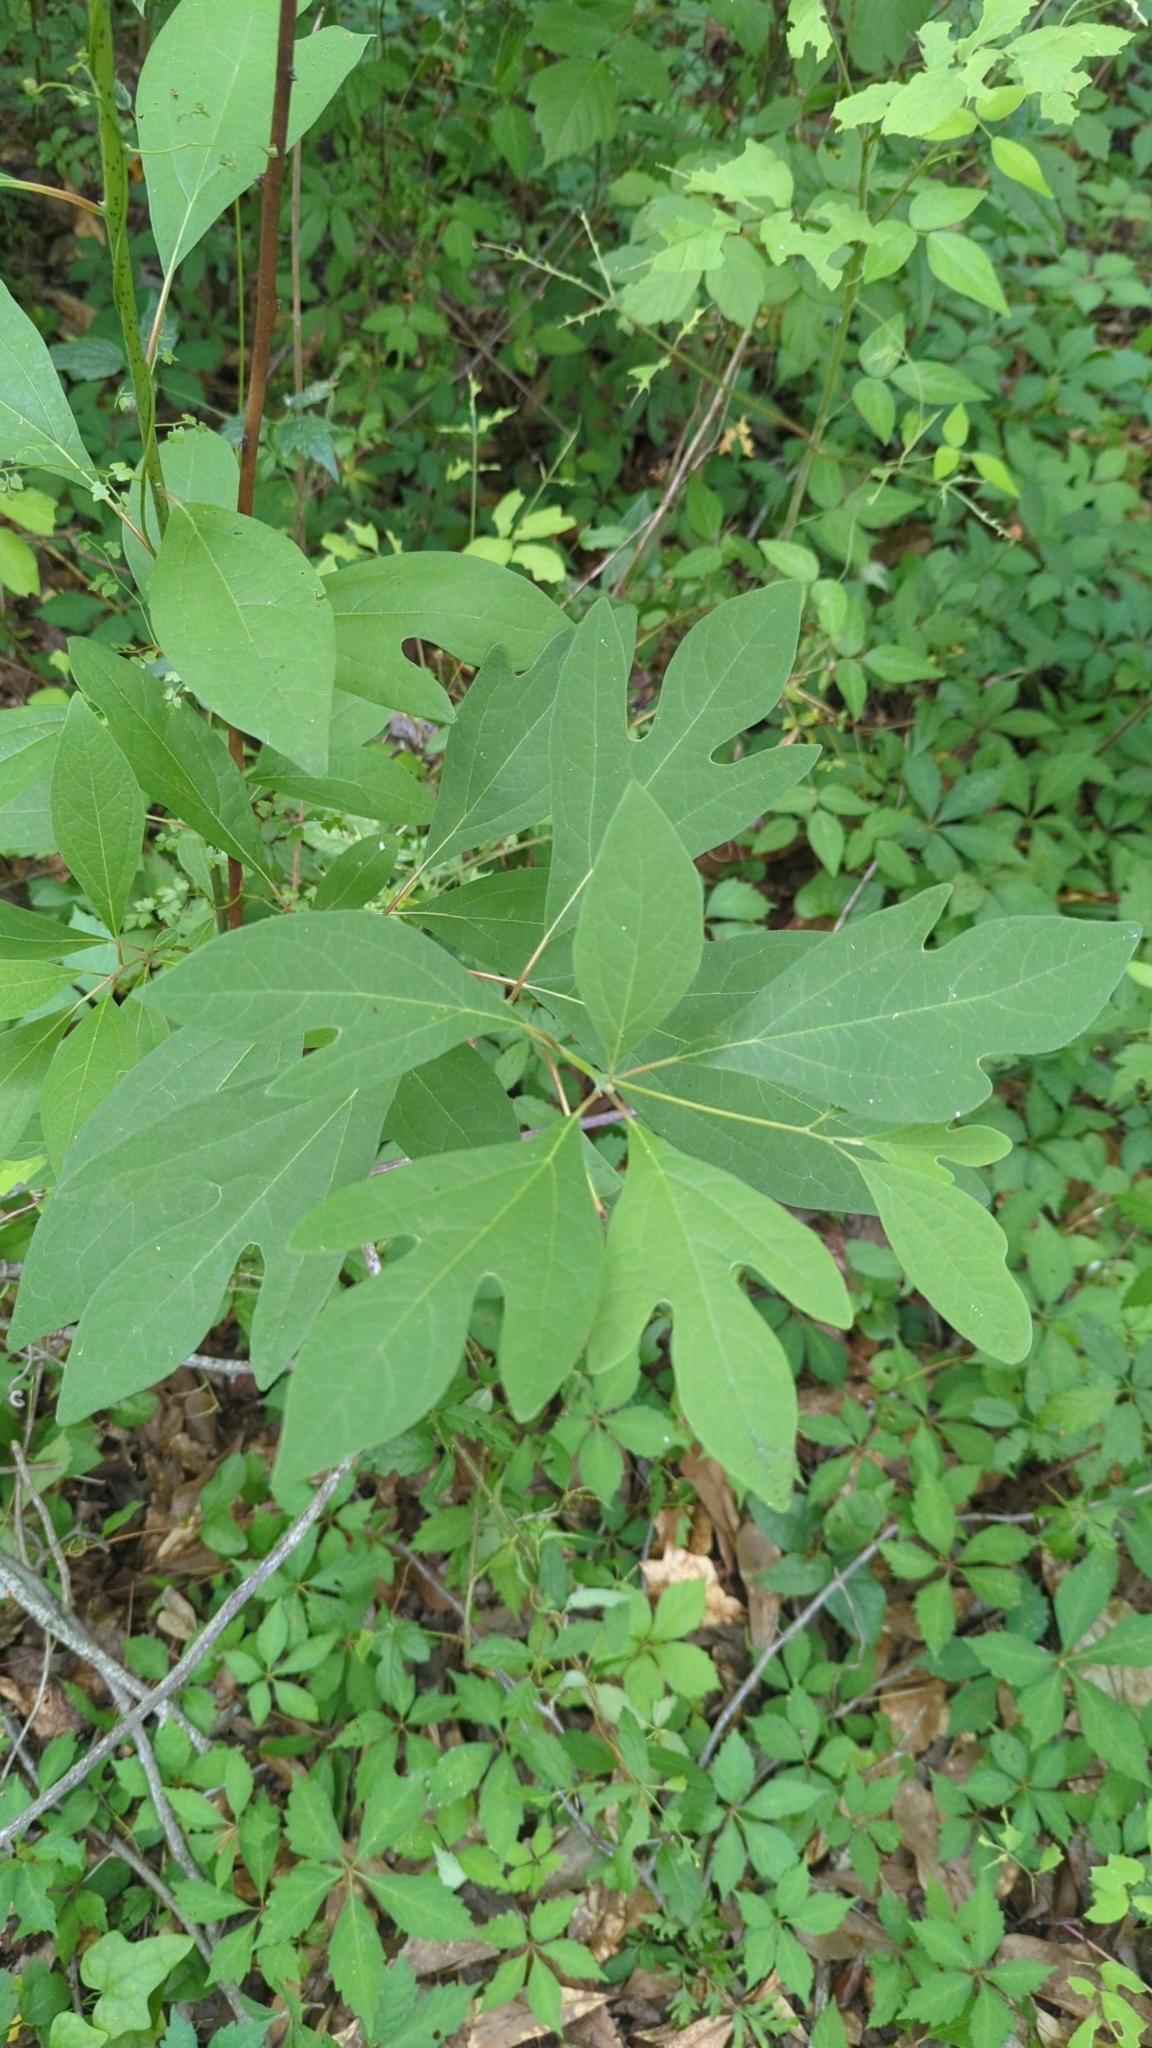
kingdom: Plantae
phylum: Tracheophyta
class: Magnoliopsida
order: Laurales
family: Lauraceae
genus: Sassafras
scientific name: Sassafras albidum
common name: Sassafras
